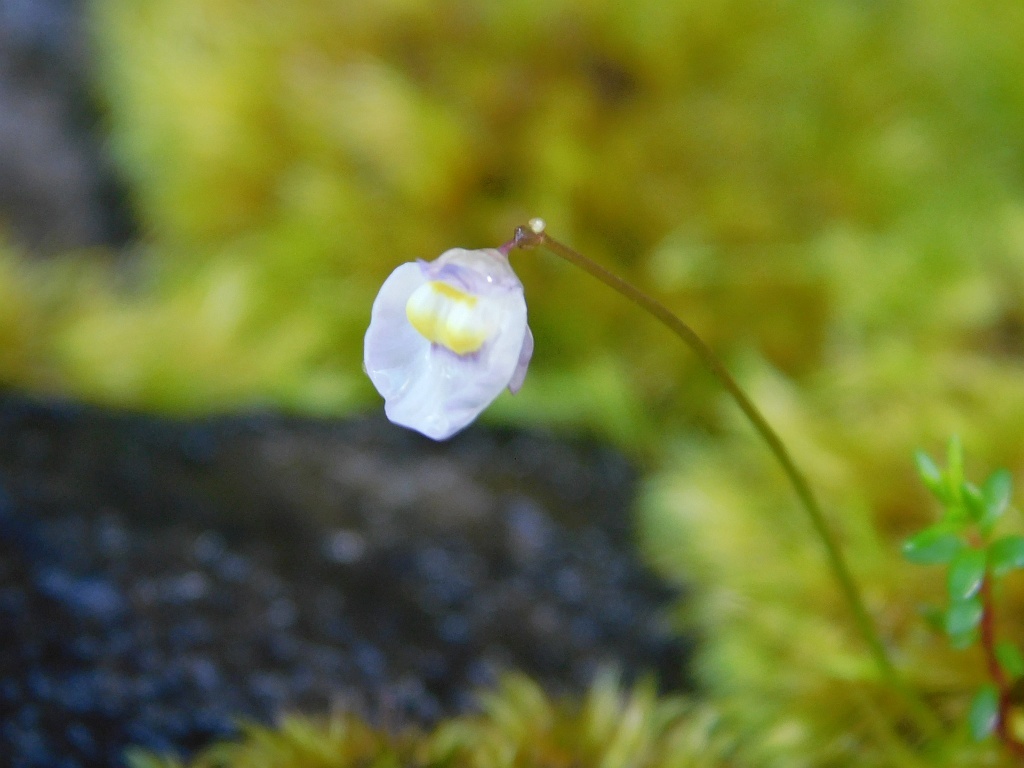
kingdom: Plantae
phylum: Tracheophyta
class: Magnoliopsida
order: Lamiales
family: Lentibulariaceae
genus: Utricularia
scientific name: Utricularia bisquamata
